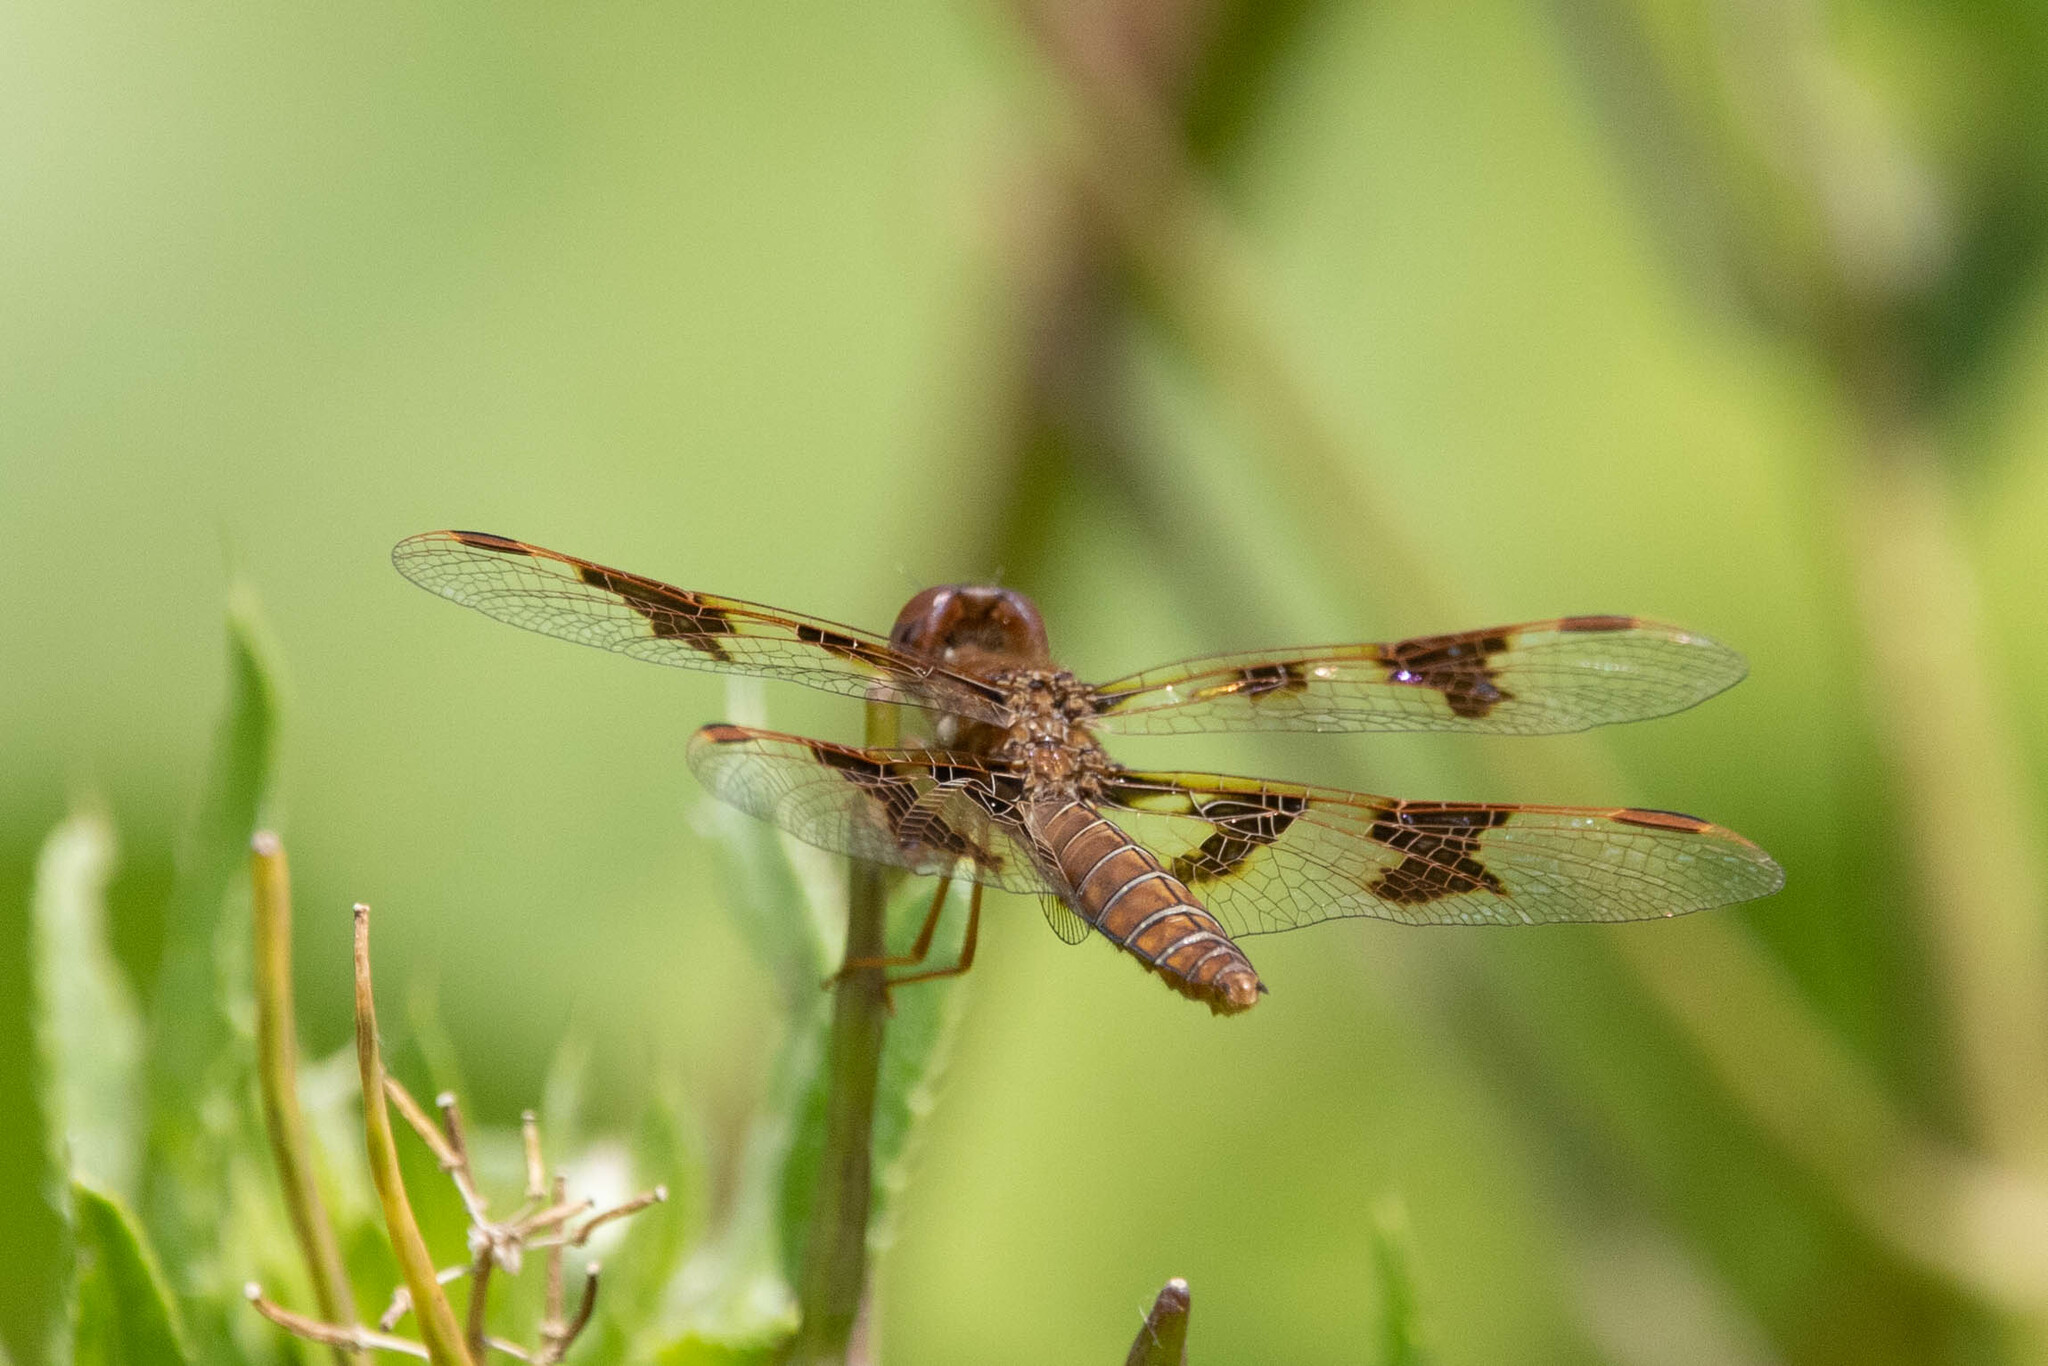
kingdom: Animalia
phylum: Arthropoda
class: Insecta
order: Odonata
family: Libellulidae
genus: Perithemis
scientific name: Perithemis tenera
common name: Eastern amberwing
